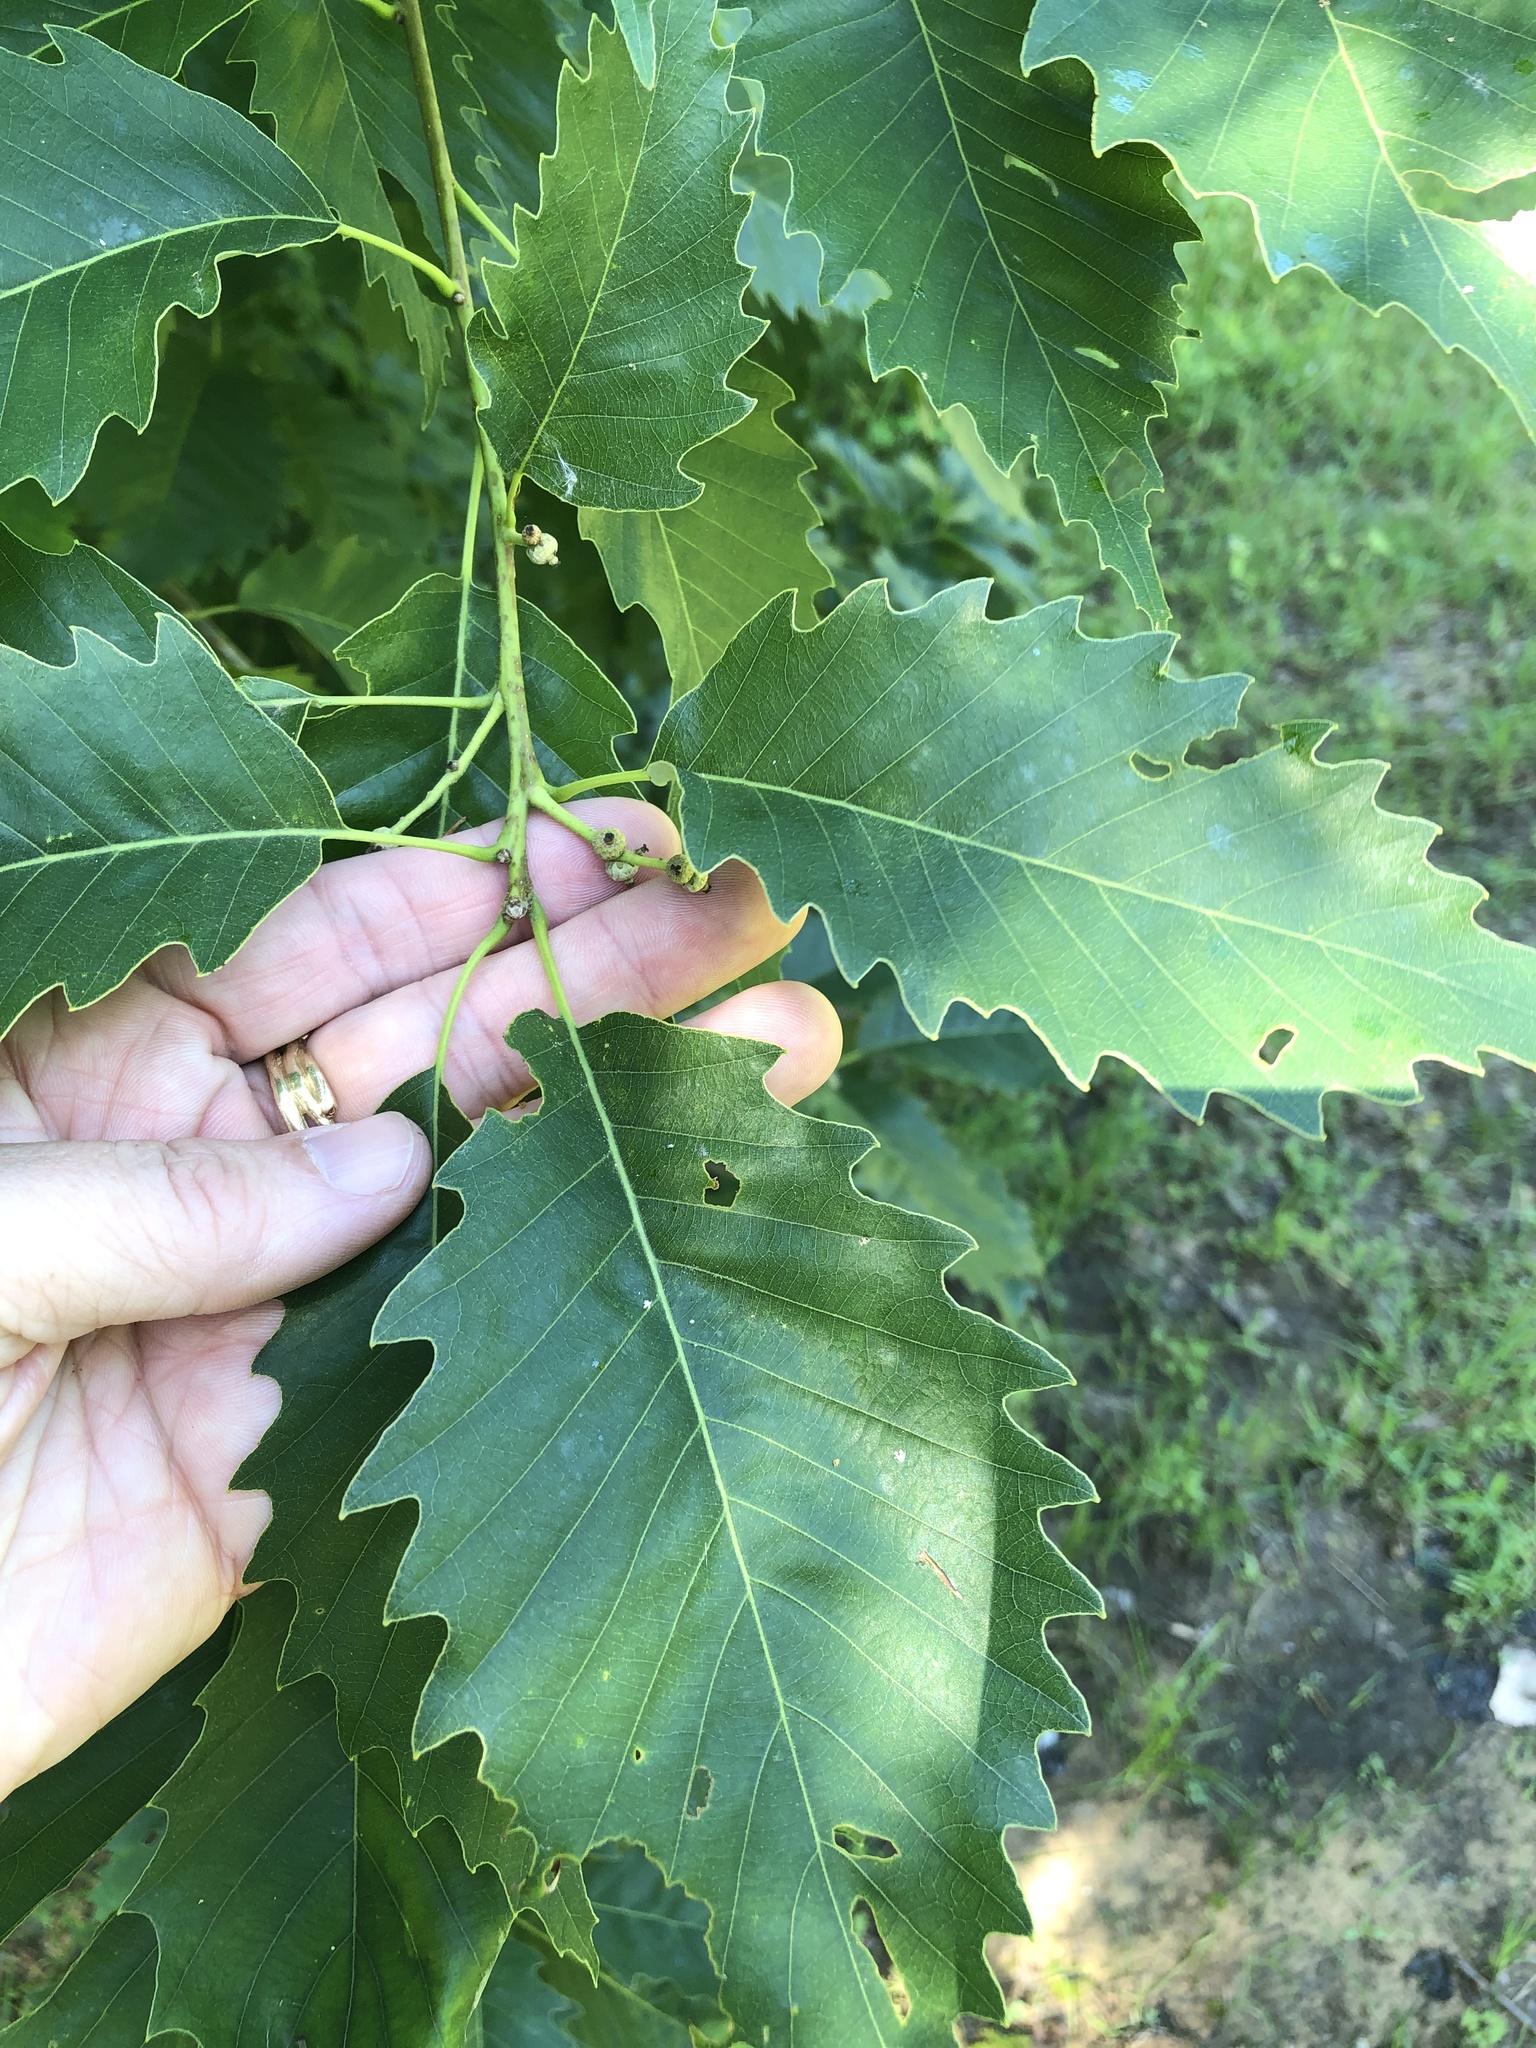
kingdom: Plantae
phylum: Tracheophyta
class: Magnoliopsida
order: Fagales
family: Fagaceae
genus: Quercus
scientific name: Quercus muehlenbergii
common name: Chinkapin oak
